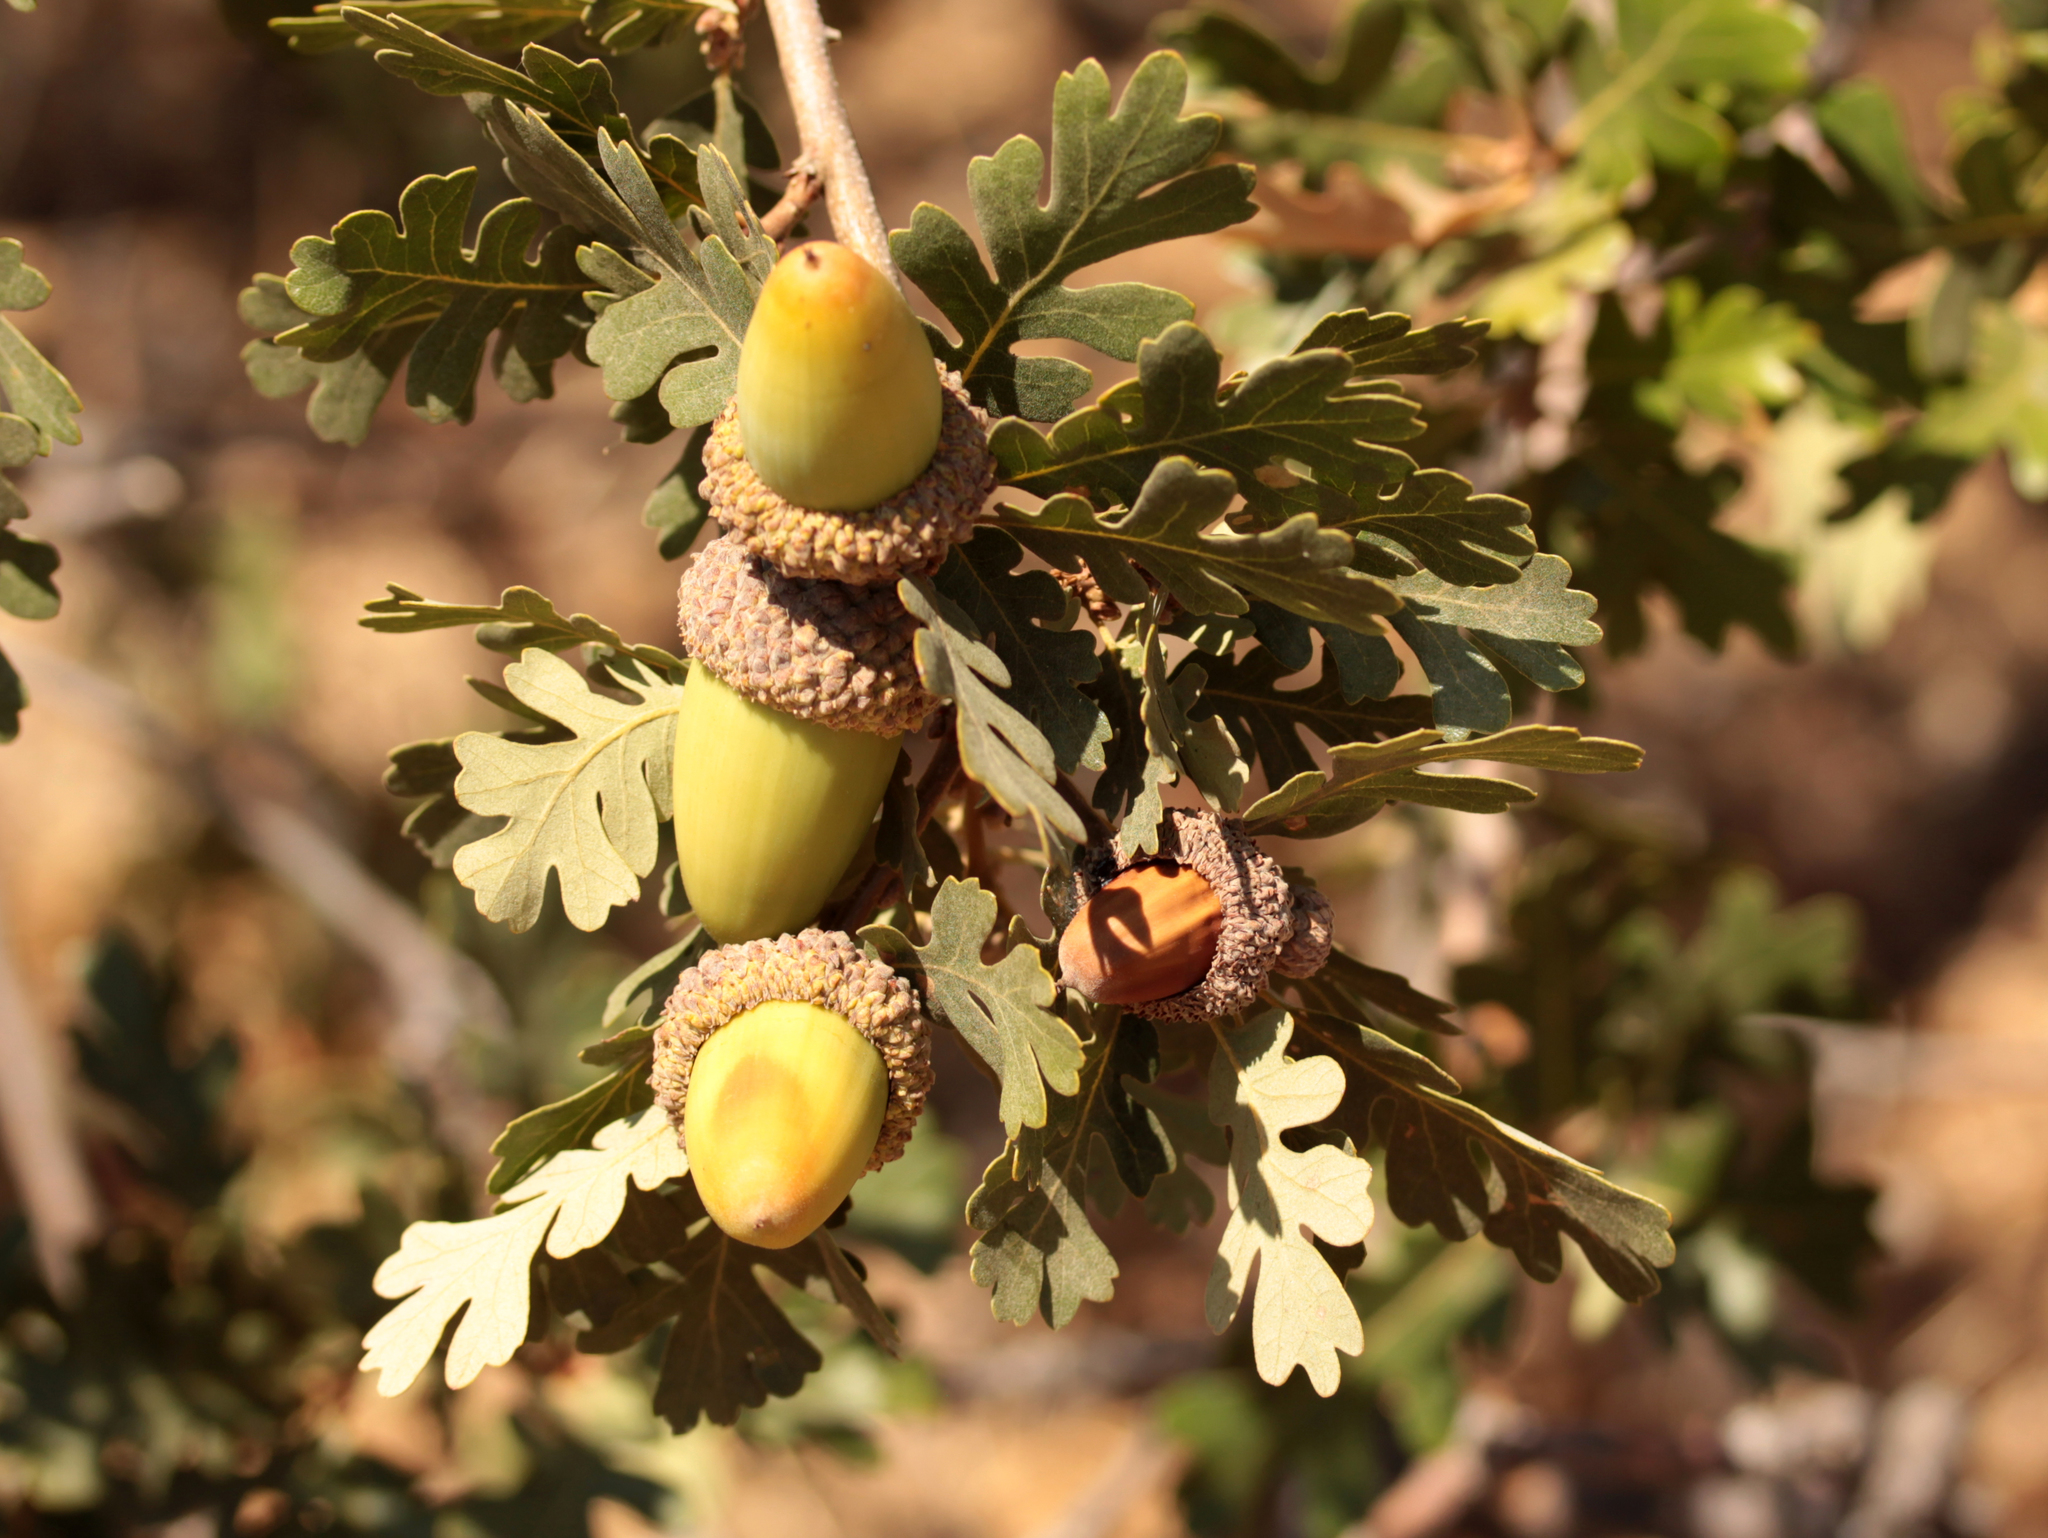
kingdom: Plantae
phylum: Tracheophyta
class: Magnoliopsida
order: Fagales
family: Fagaceae
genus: Quercus
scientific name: Quercus lobata
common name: Valley oak
